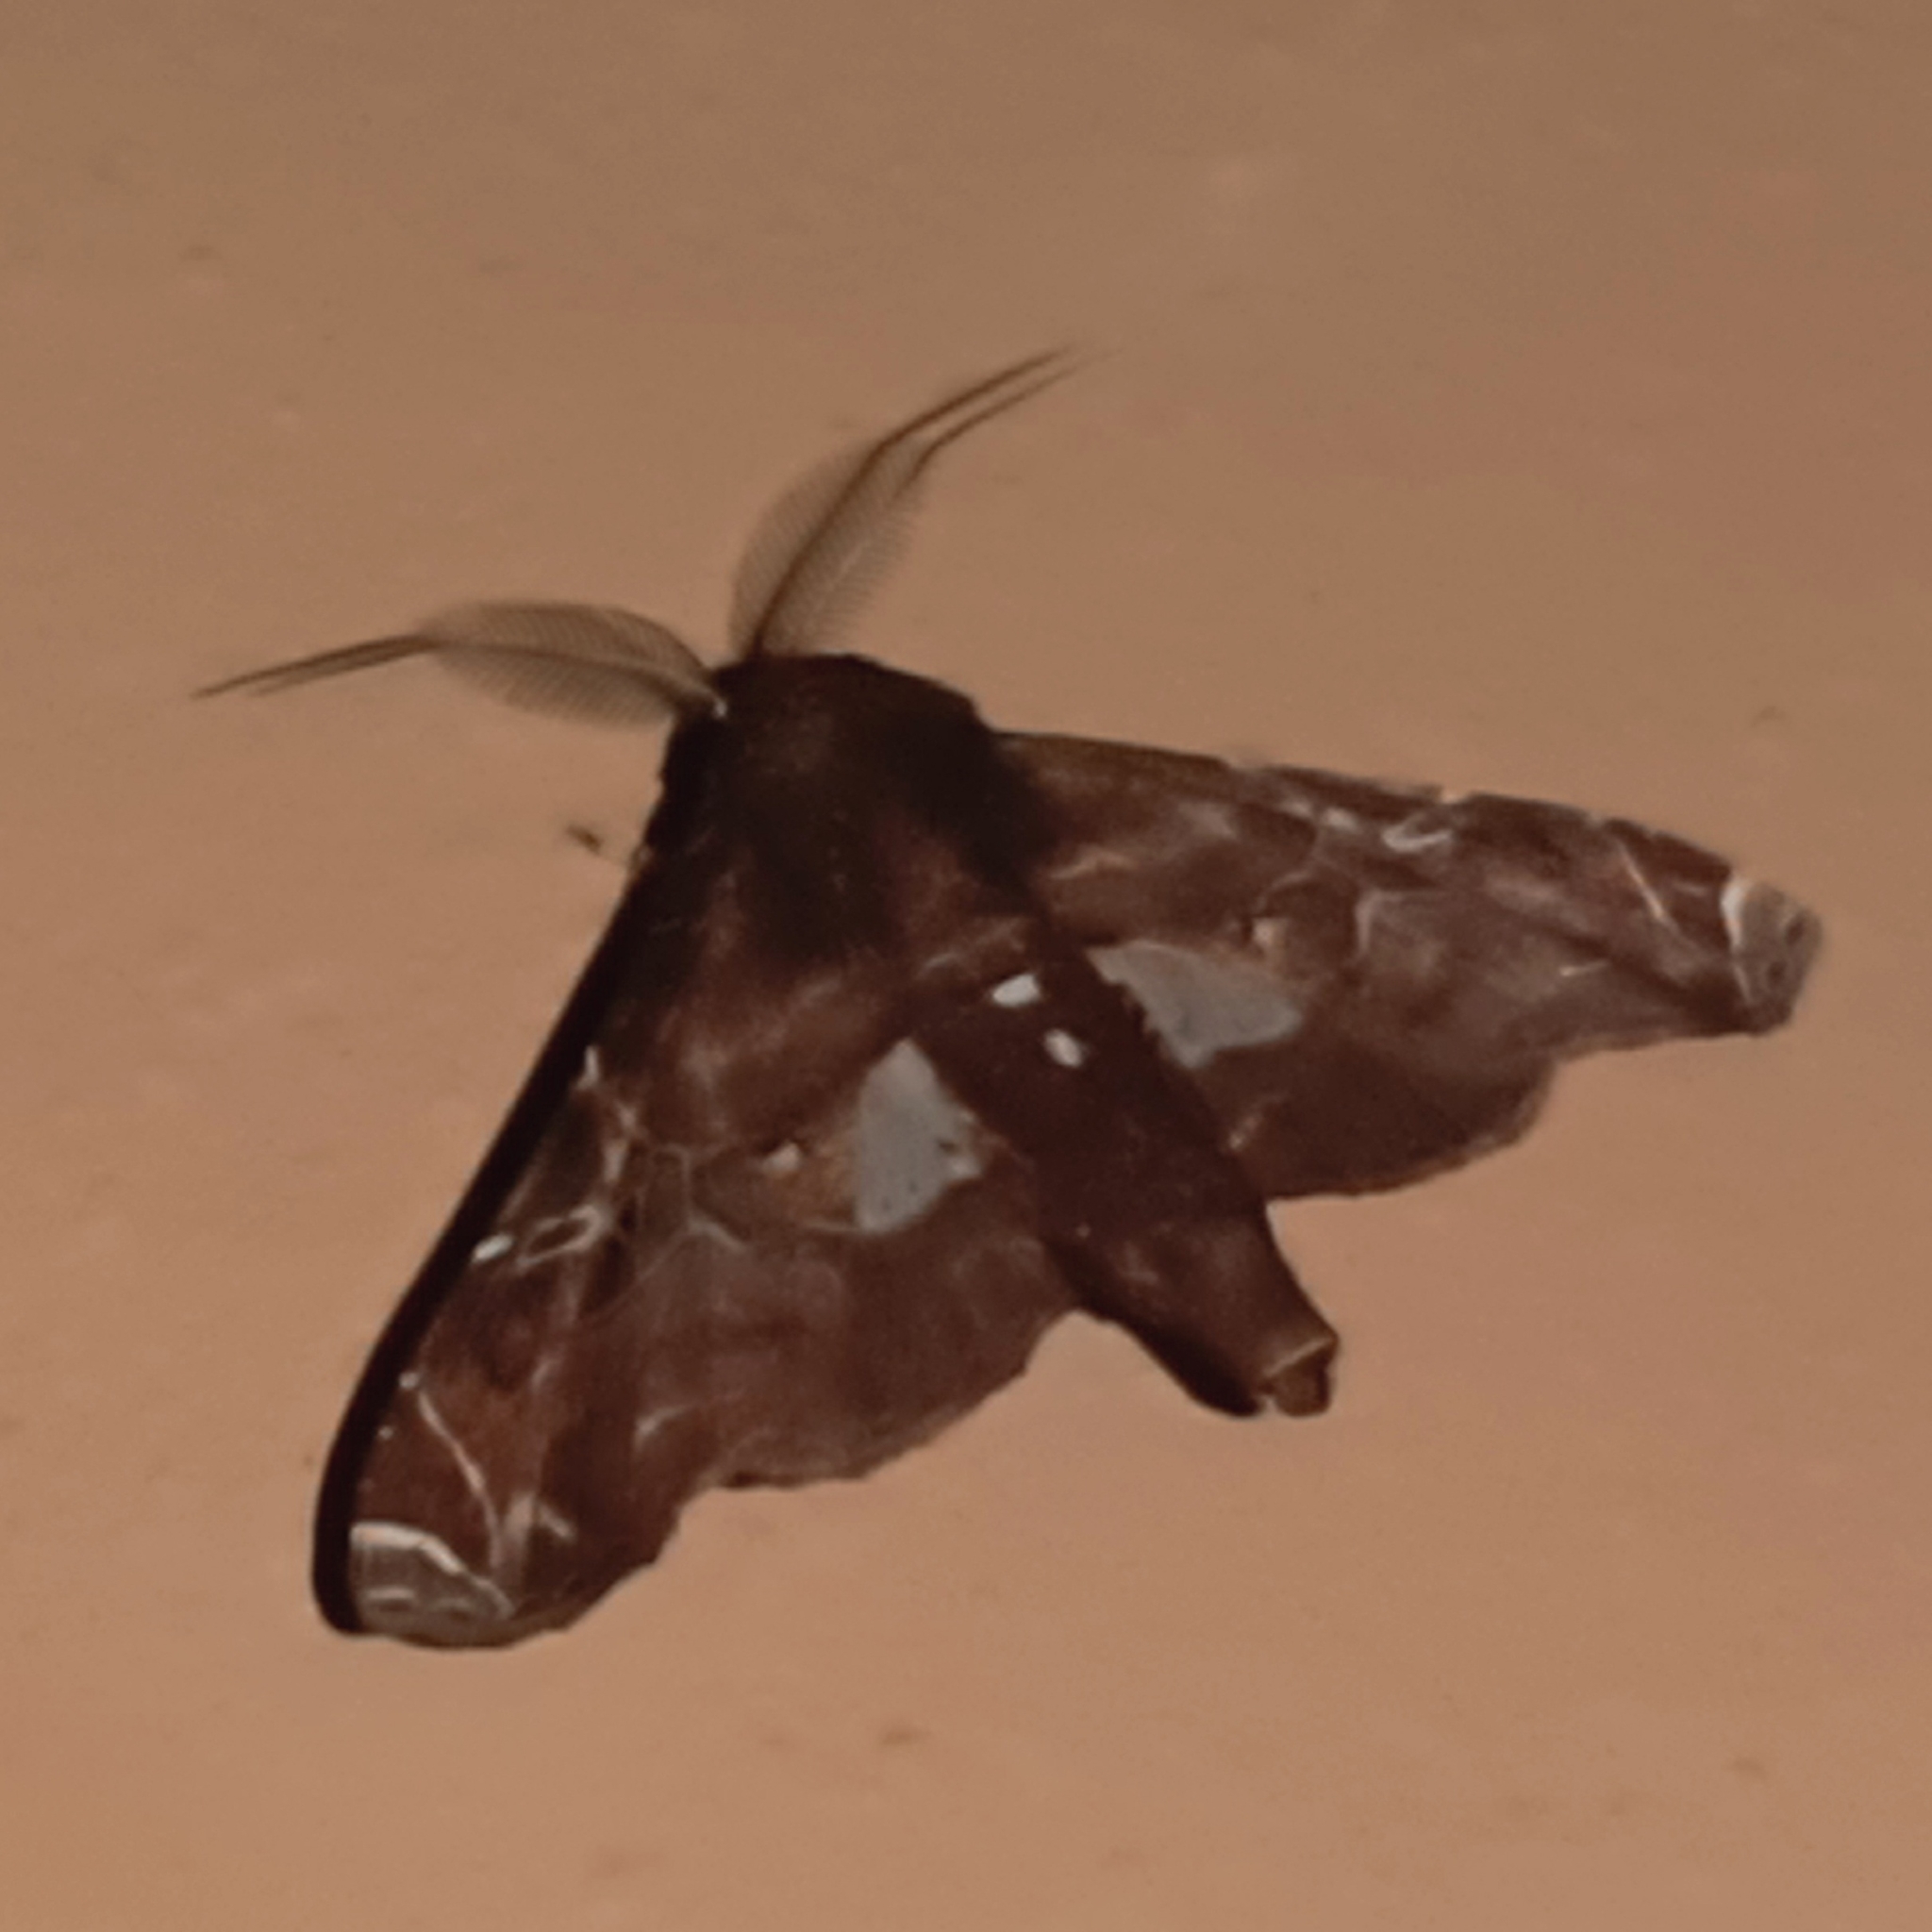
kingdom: Animalia
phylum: Arthropoda
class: Insecta
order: Lepidoptera
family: Euteliidae
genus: Eutelia
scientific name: Eutelia apithana
